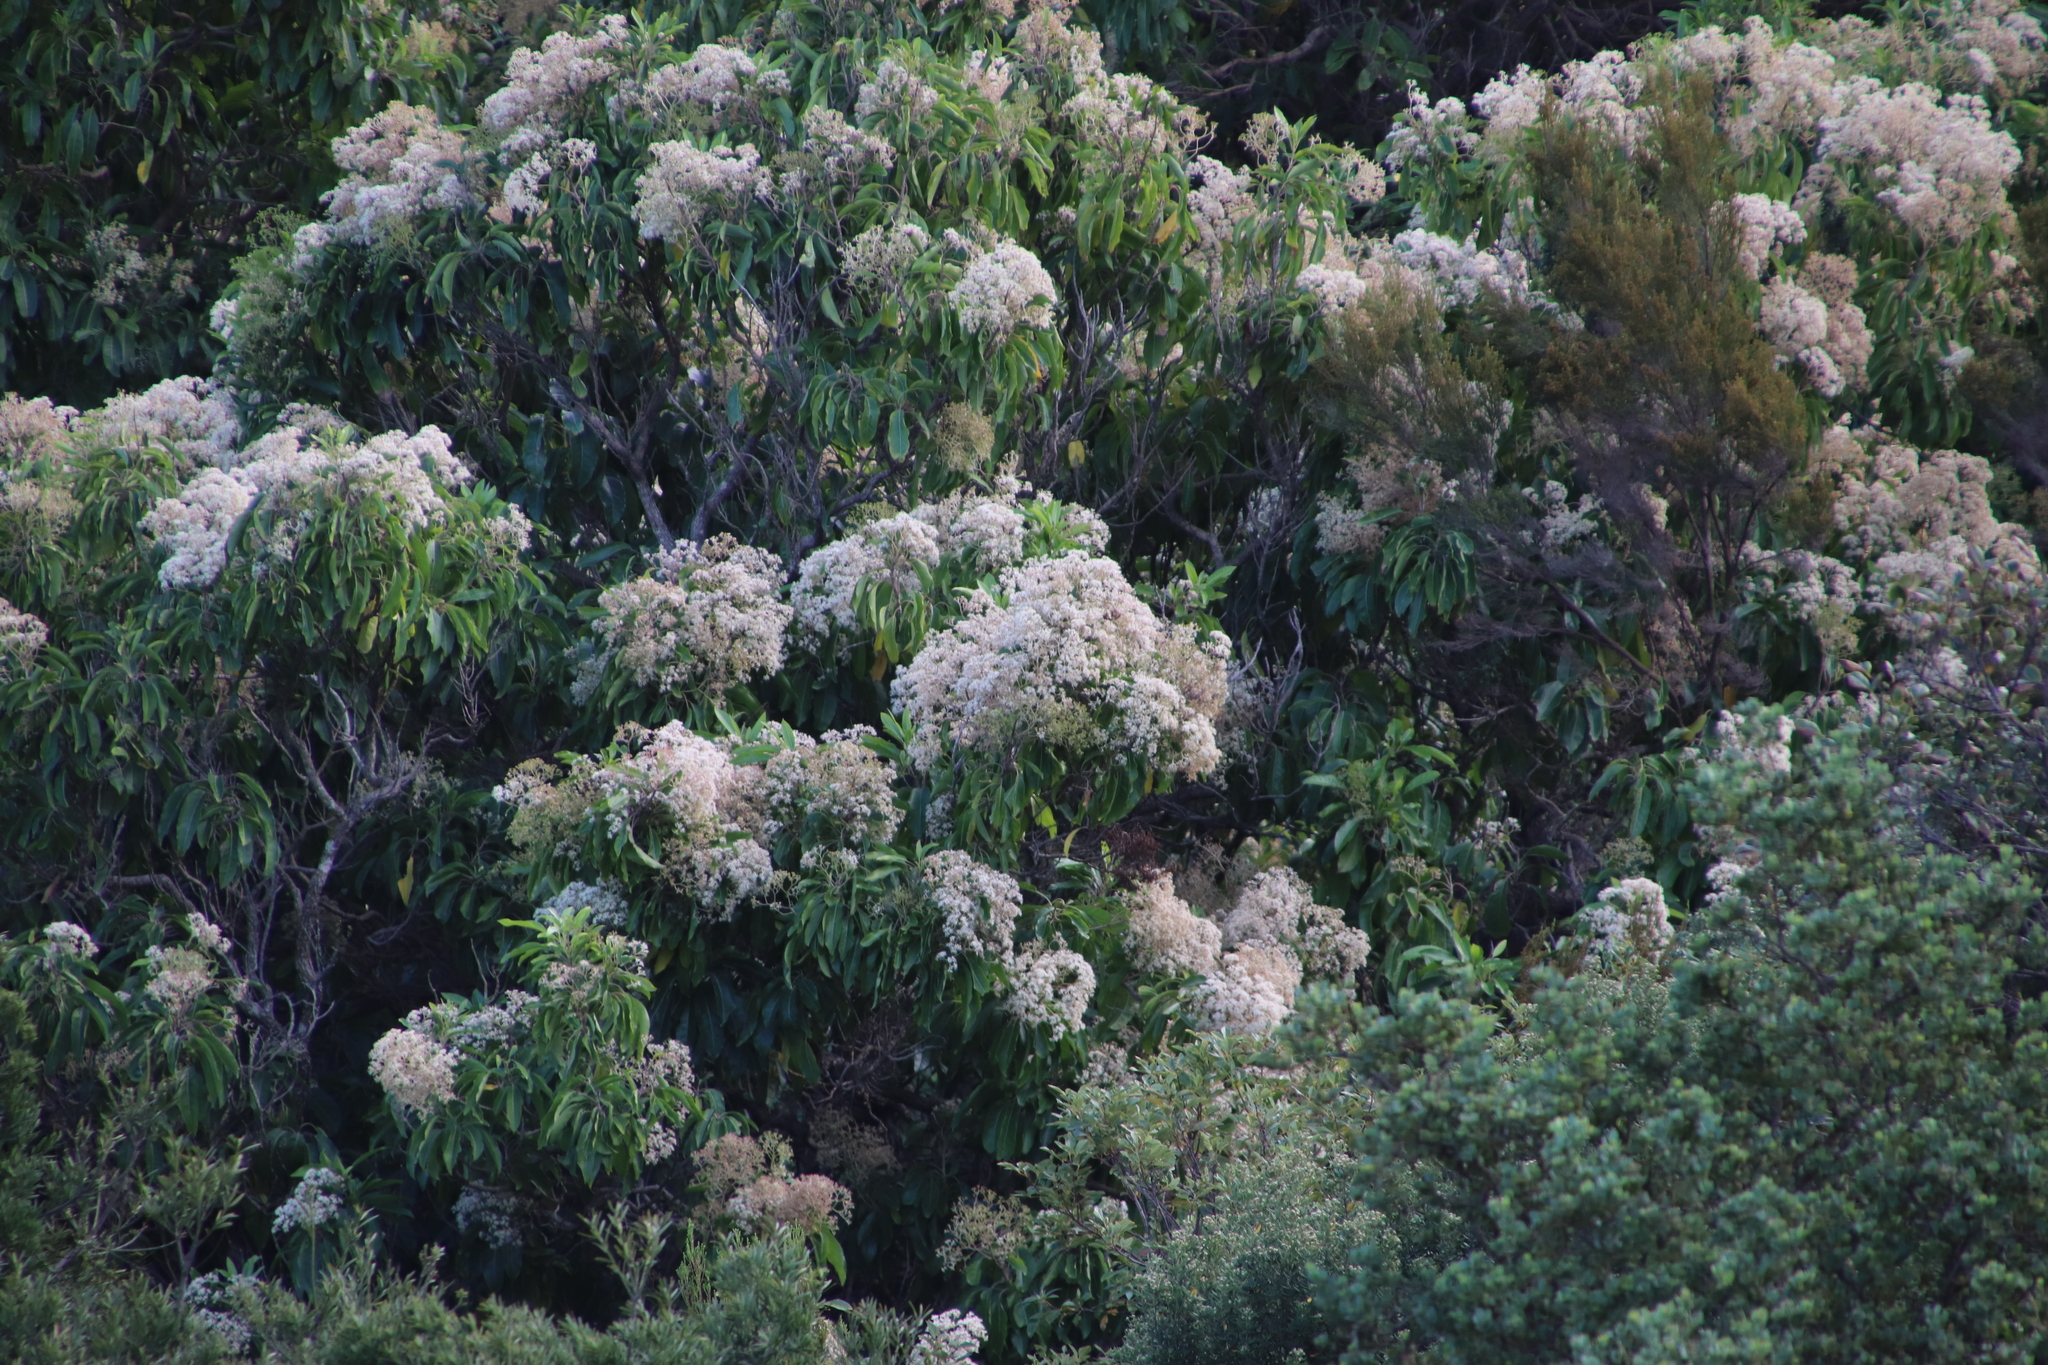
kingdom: Plantae
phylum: Tracheophyta
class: Magnoliopsida
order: Lamiales
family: Stilbaceae
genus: Nuxia
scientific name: Nuxia floribunda
